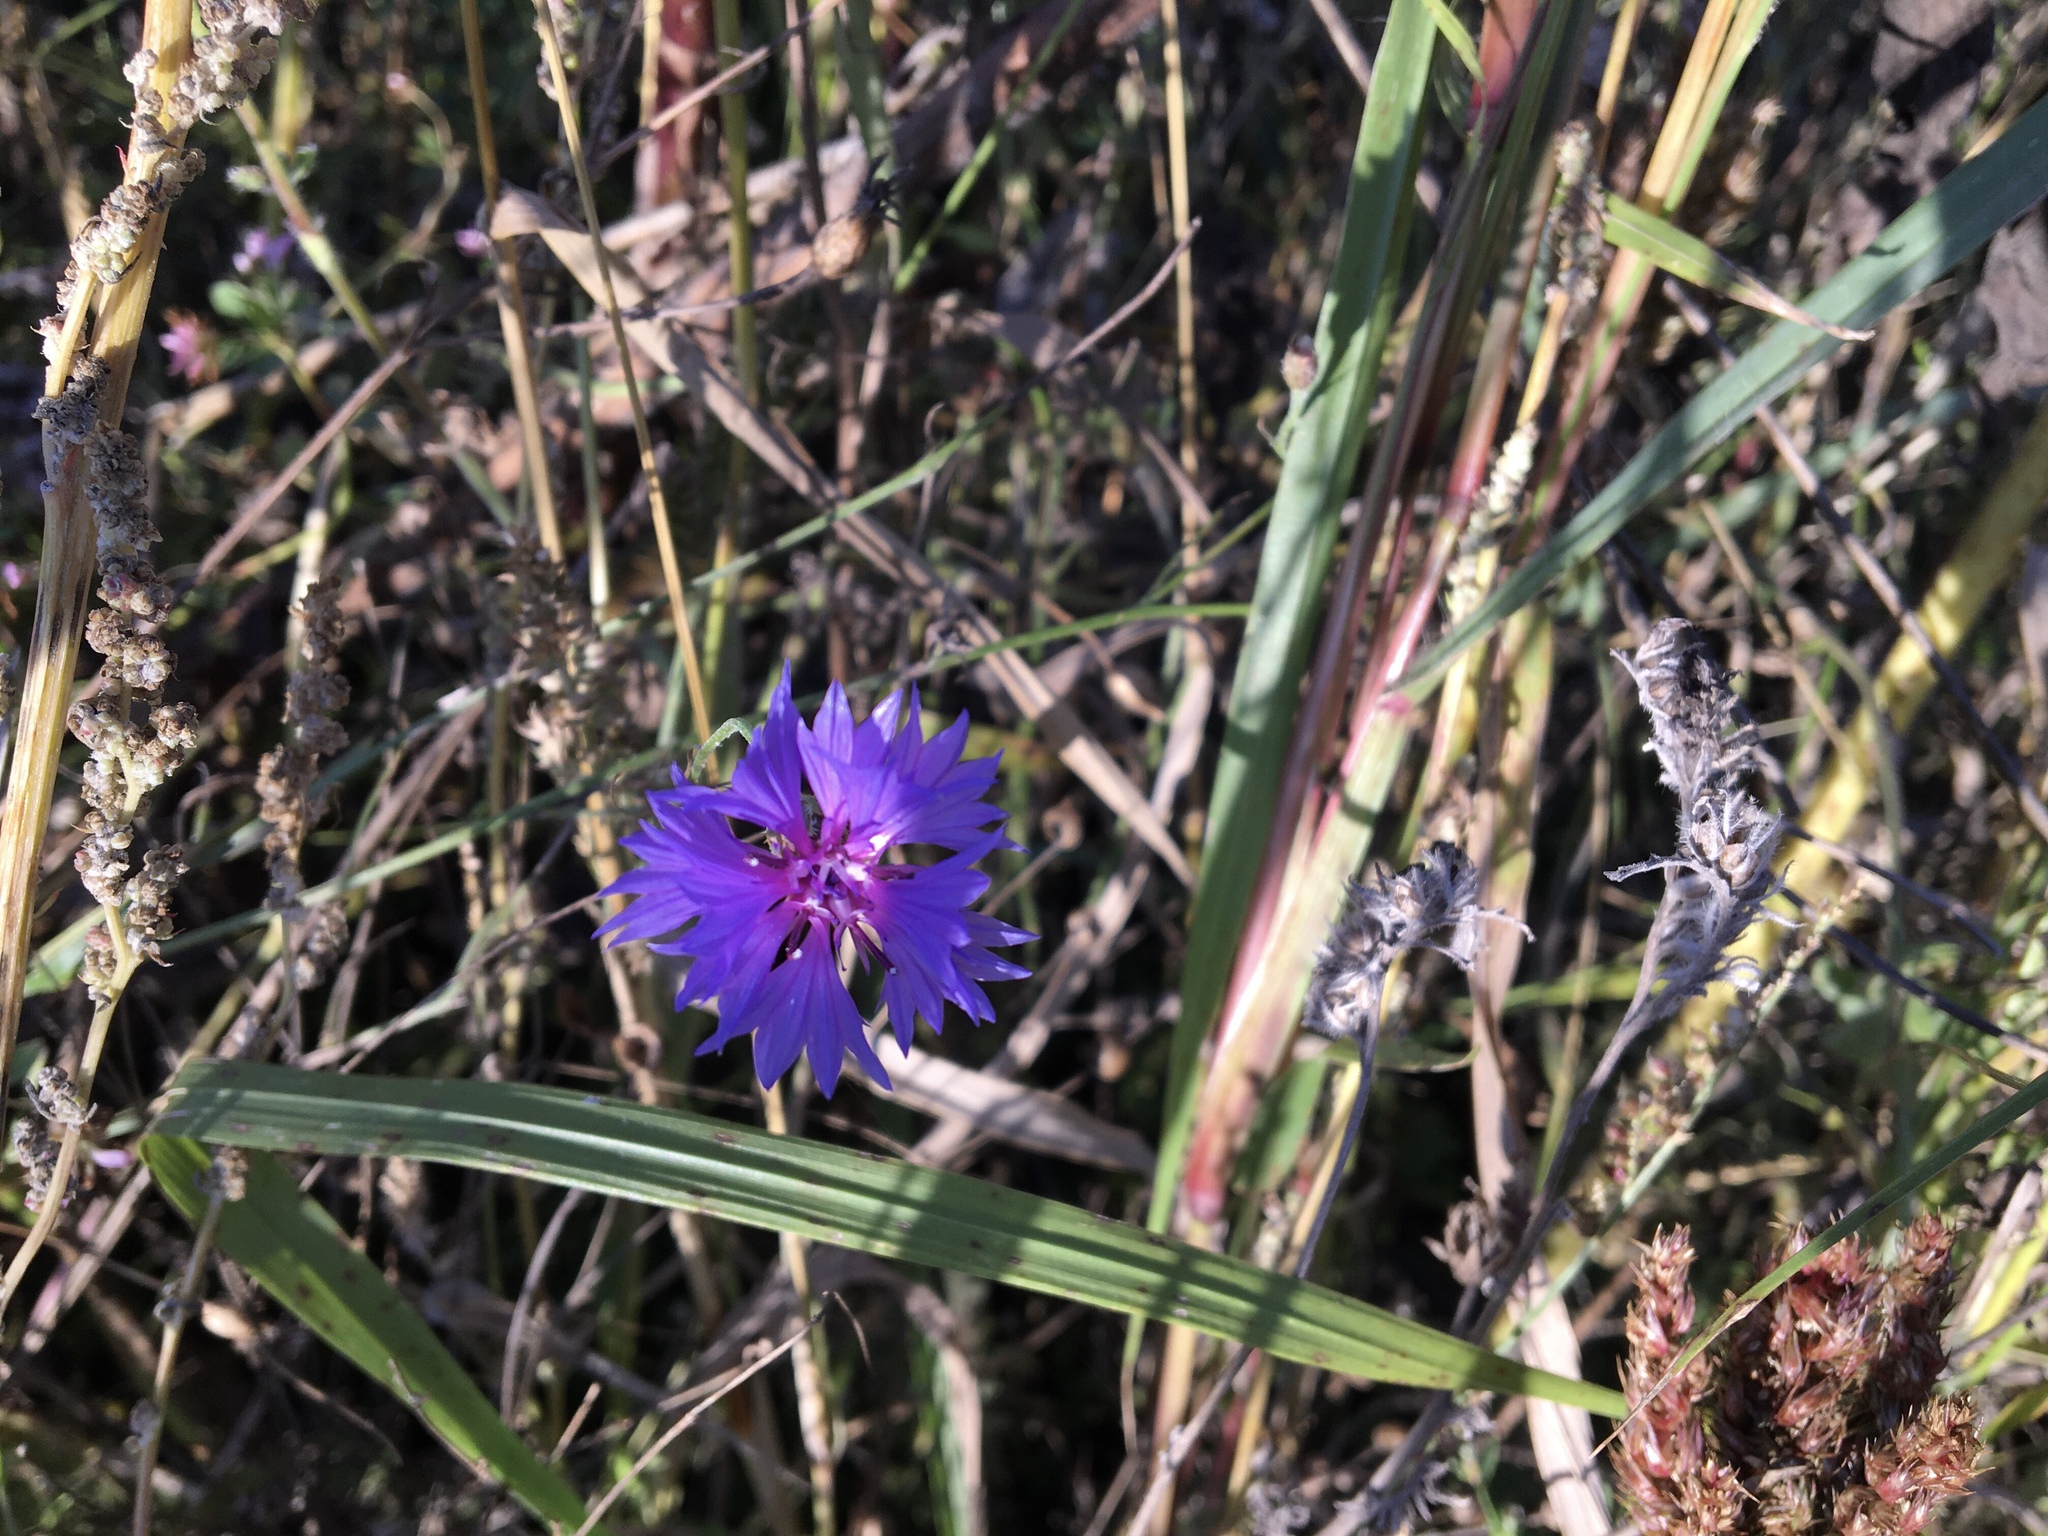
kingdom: Plantae
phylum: Tracheophyta
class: Magnoliopsida
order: Asterales
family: Asteraceae
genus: Centaurea
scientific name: Centaurea cyanus
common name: Cornflower
